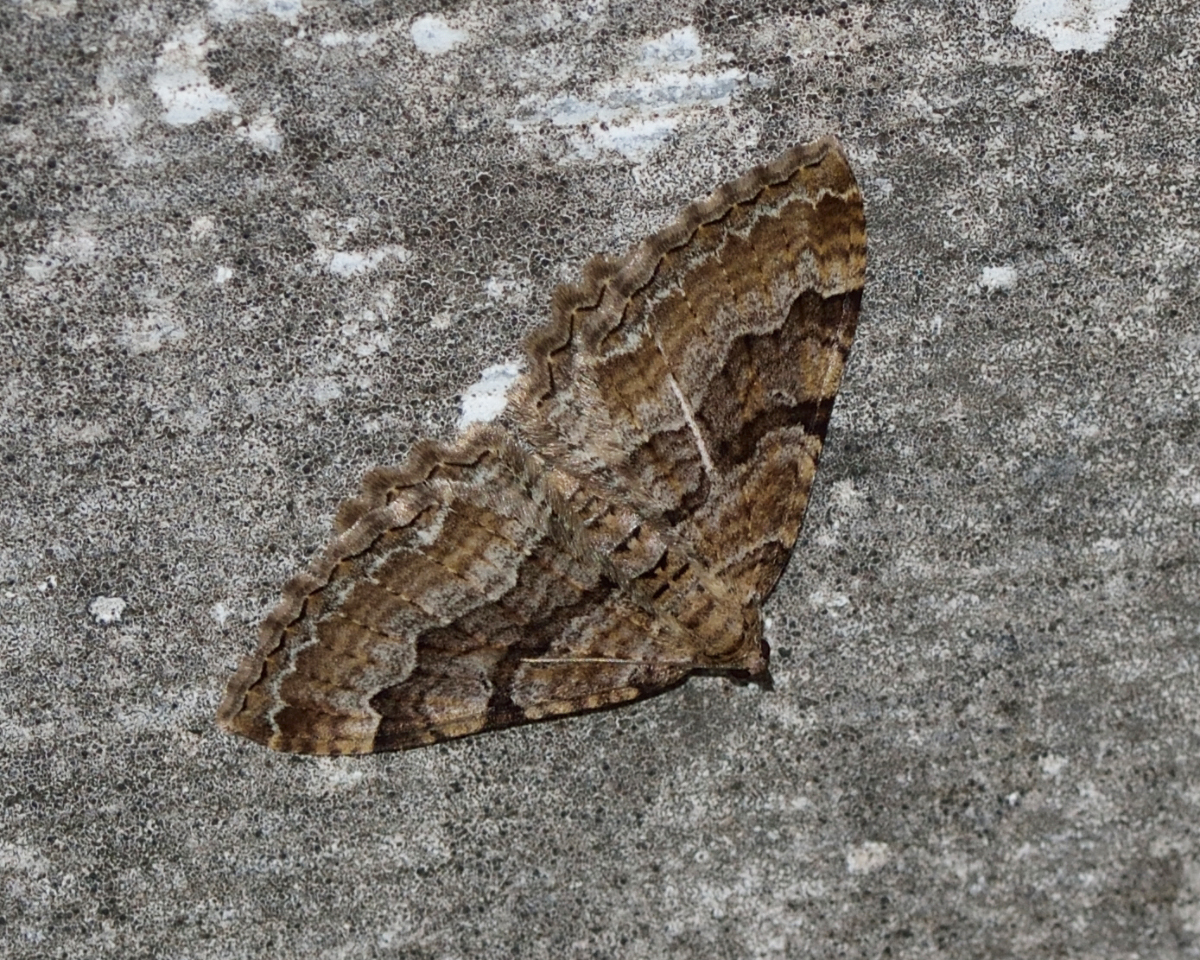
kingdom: Animalia
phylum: Arthropoda
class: Insecta
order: Lepidoptera
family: Geometridae
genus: Rheumaptera
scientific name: Rheumaptera Hydria cervinalis
